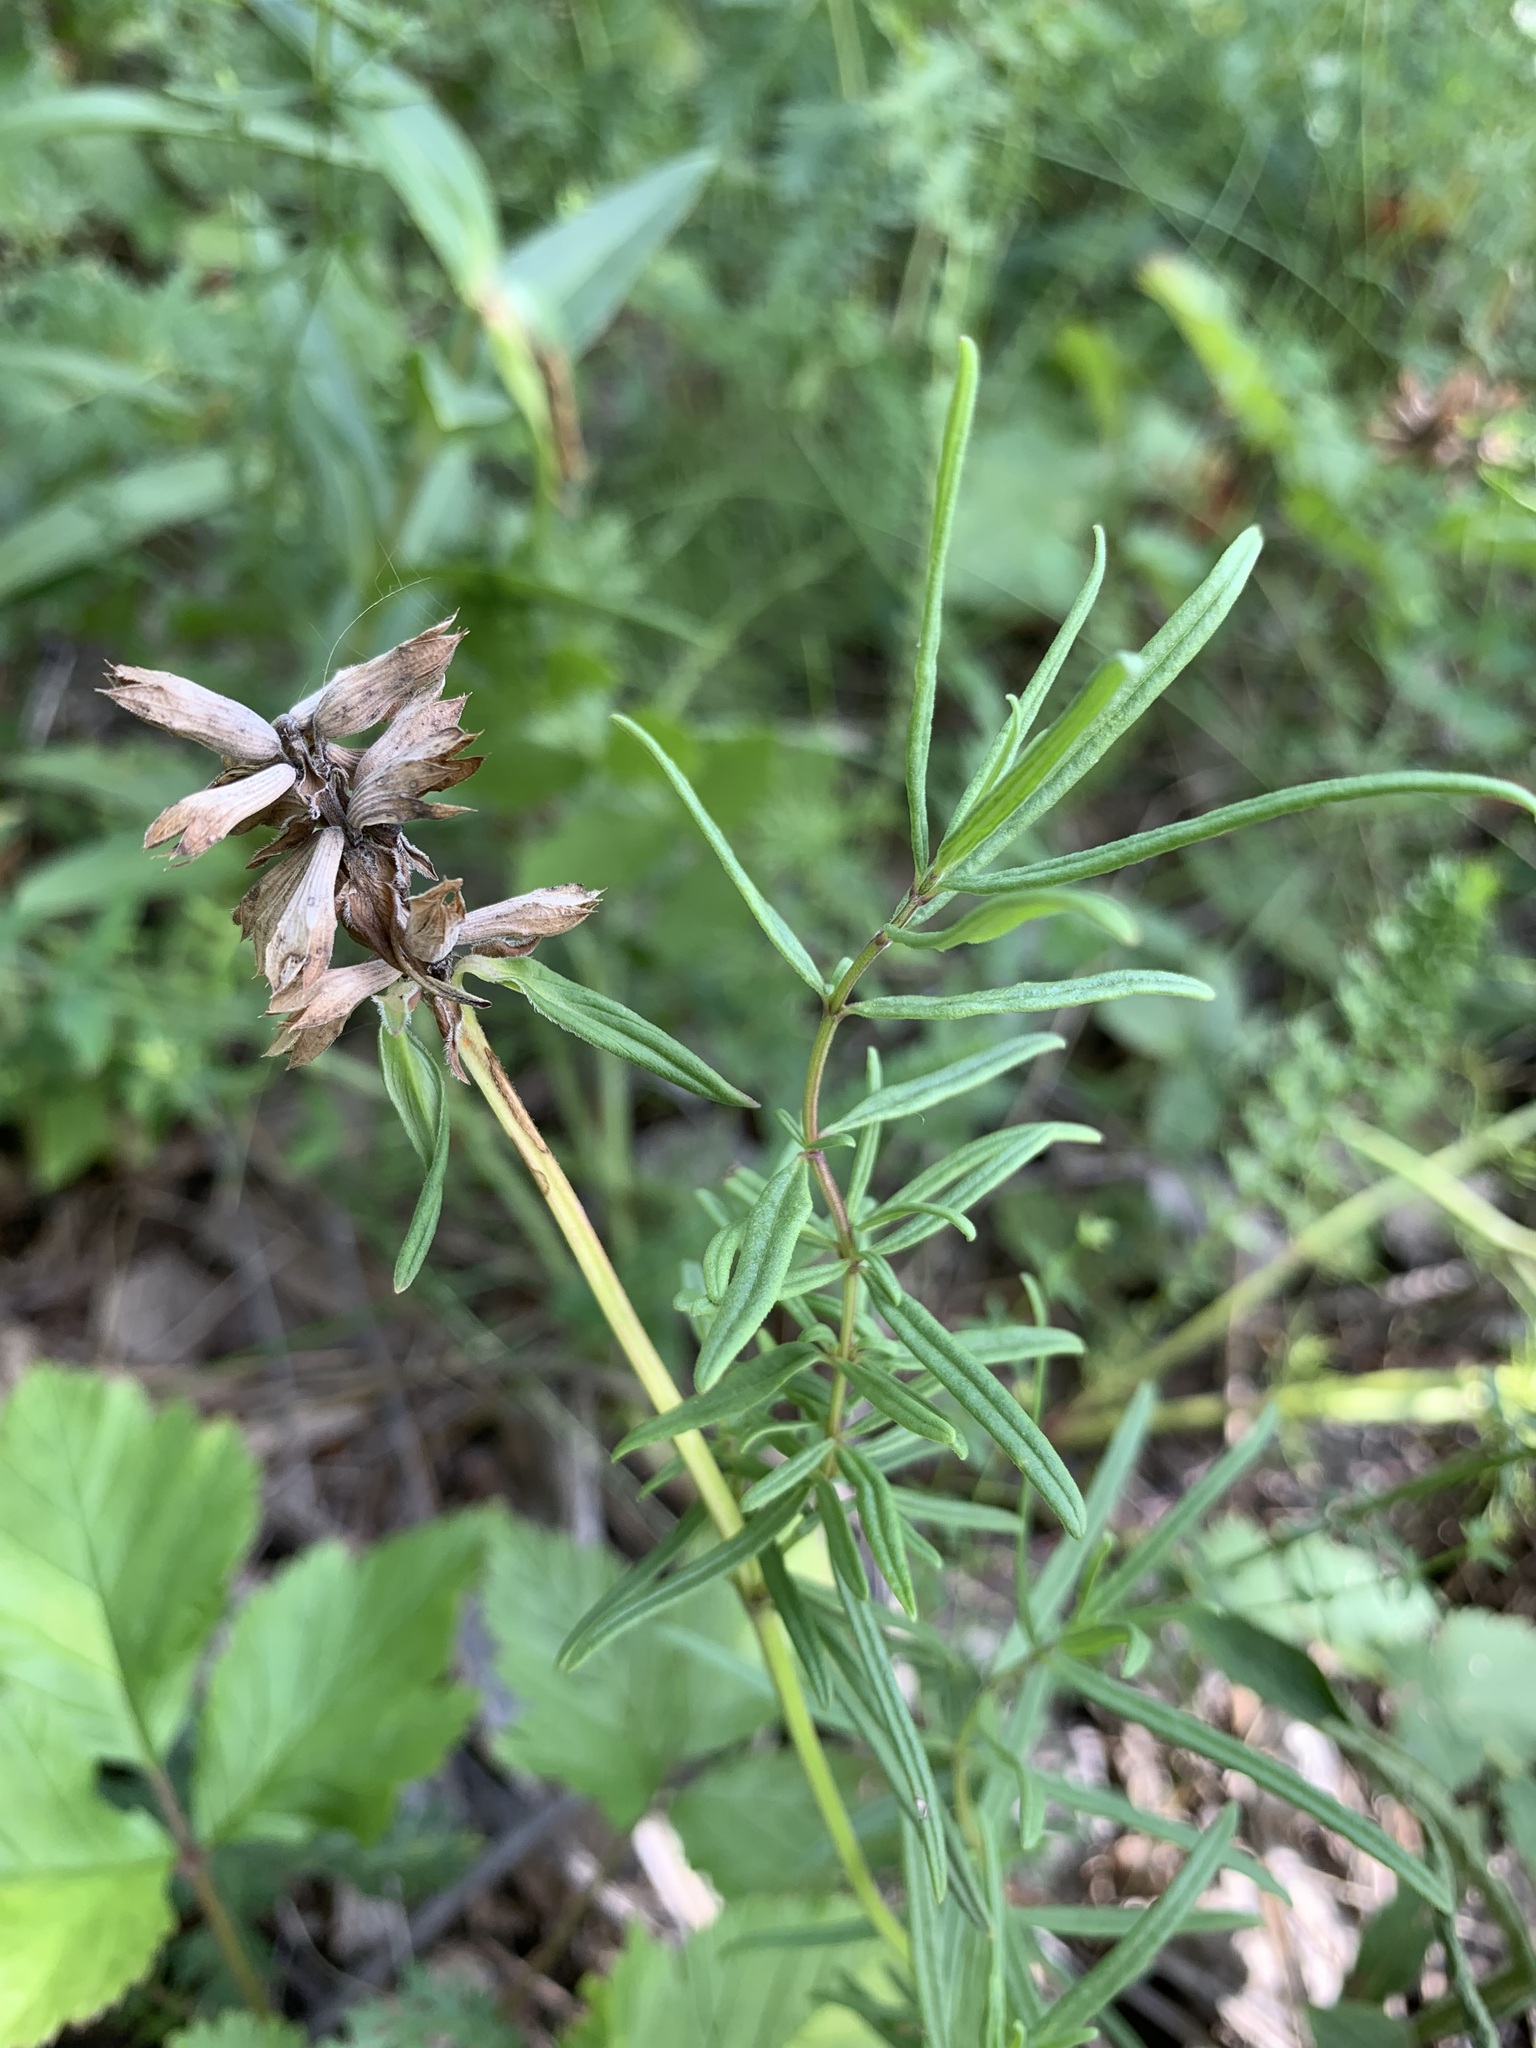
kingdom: Plantae
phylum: Tracheophyta
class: Magnoliopsida
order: Lamiales
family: Lamiaceae
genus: Dracocephalum
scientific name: Dracocephalum ruyschiana
